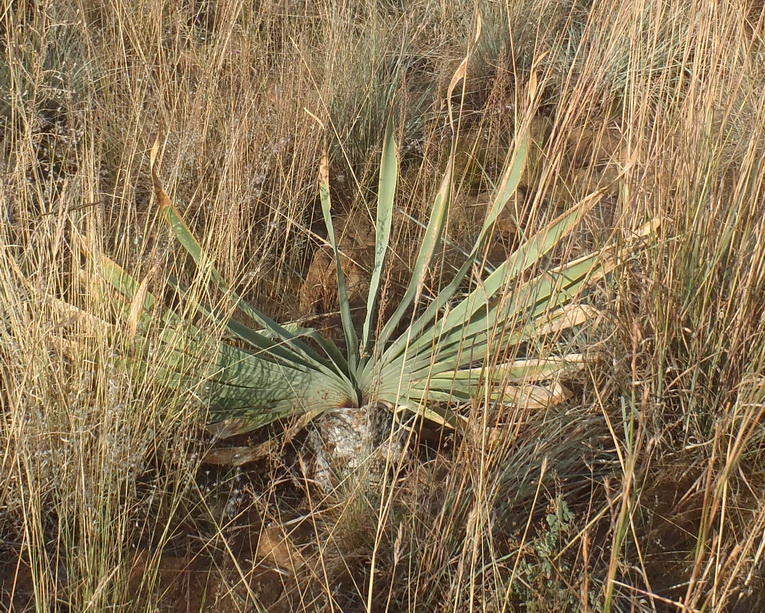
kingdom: Plantae
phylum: Tracheophyta
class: Liliopsida
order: Asparagales
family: Amaryllidaceae
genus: Boophone
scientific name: Boophone disticha
